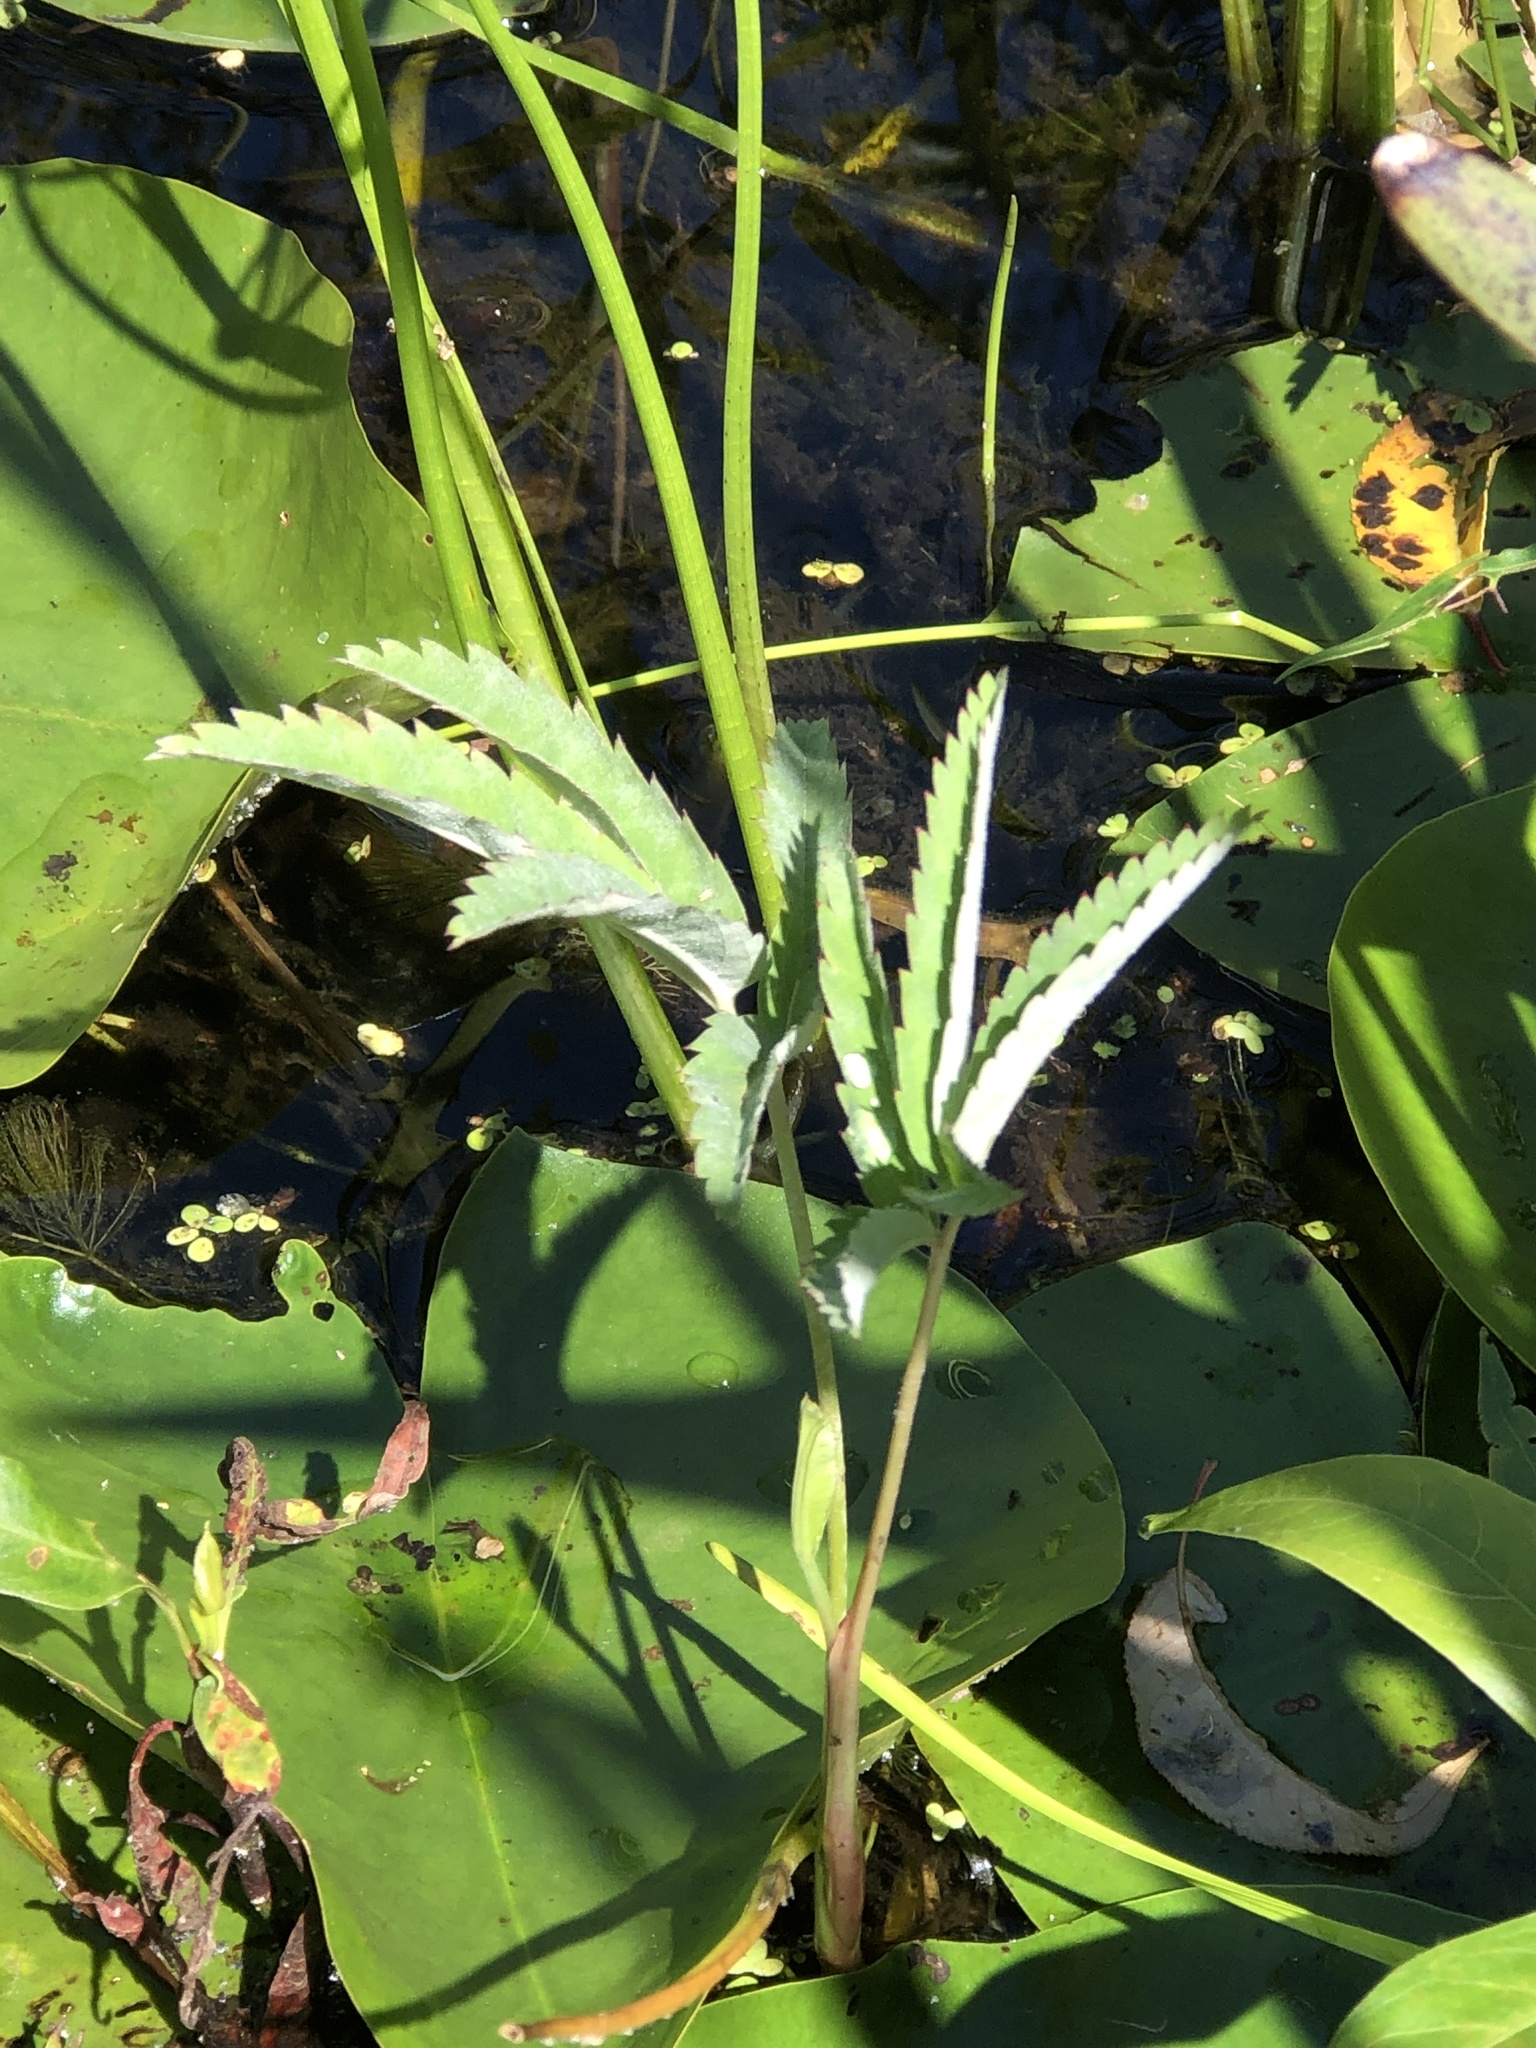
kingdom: Plantae
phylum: Tracheophyta
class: Magnoliopsida
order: Rosales
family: Rosaceae
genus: Comarum
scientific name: Comarum palustre
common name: Marsh cinquefoil
